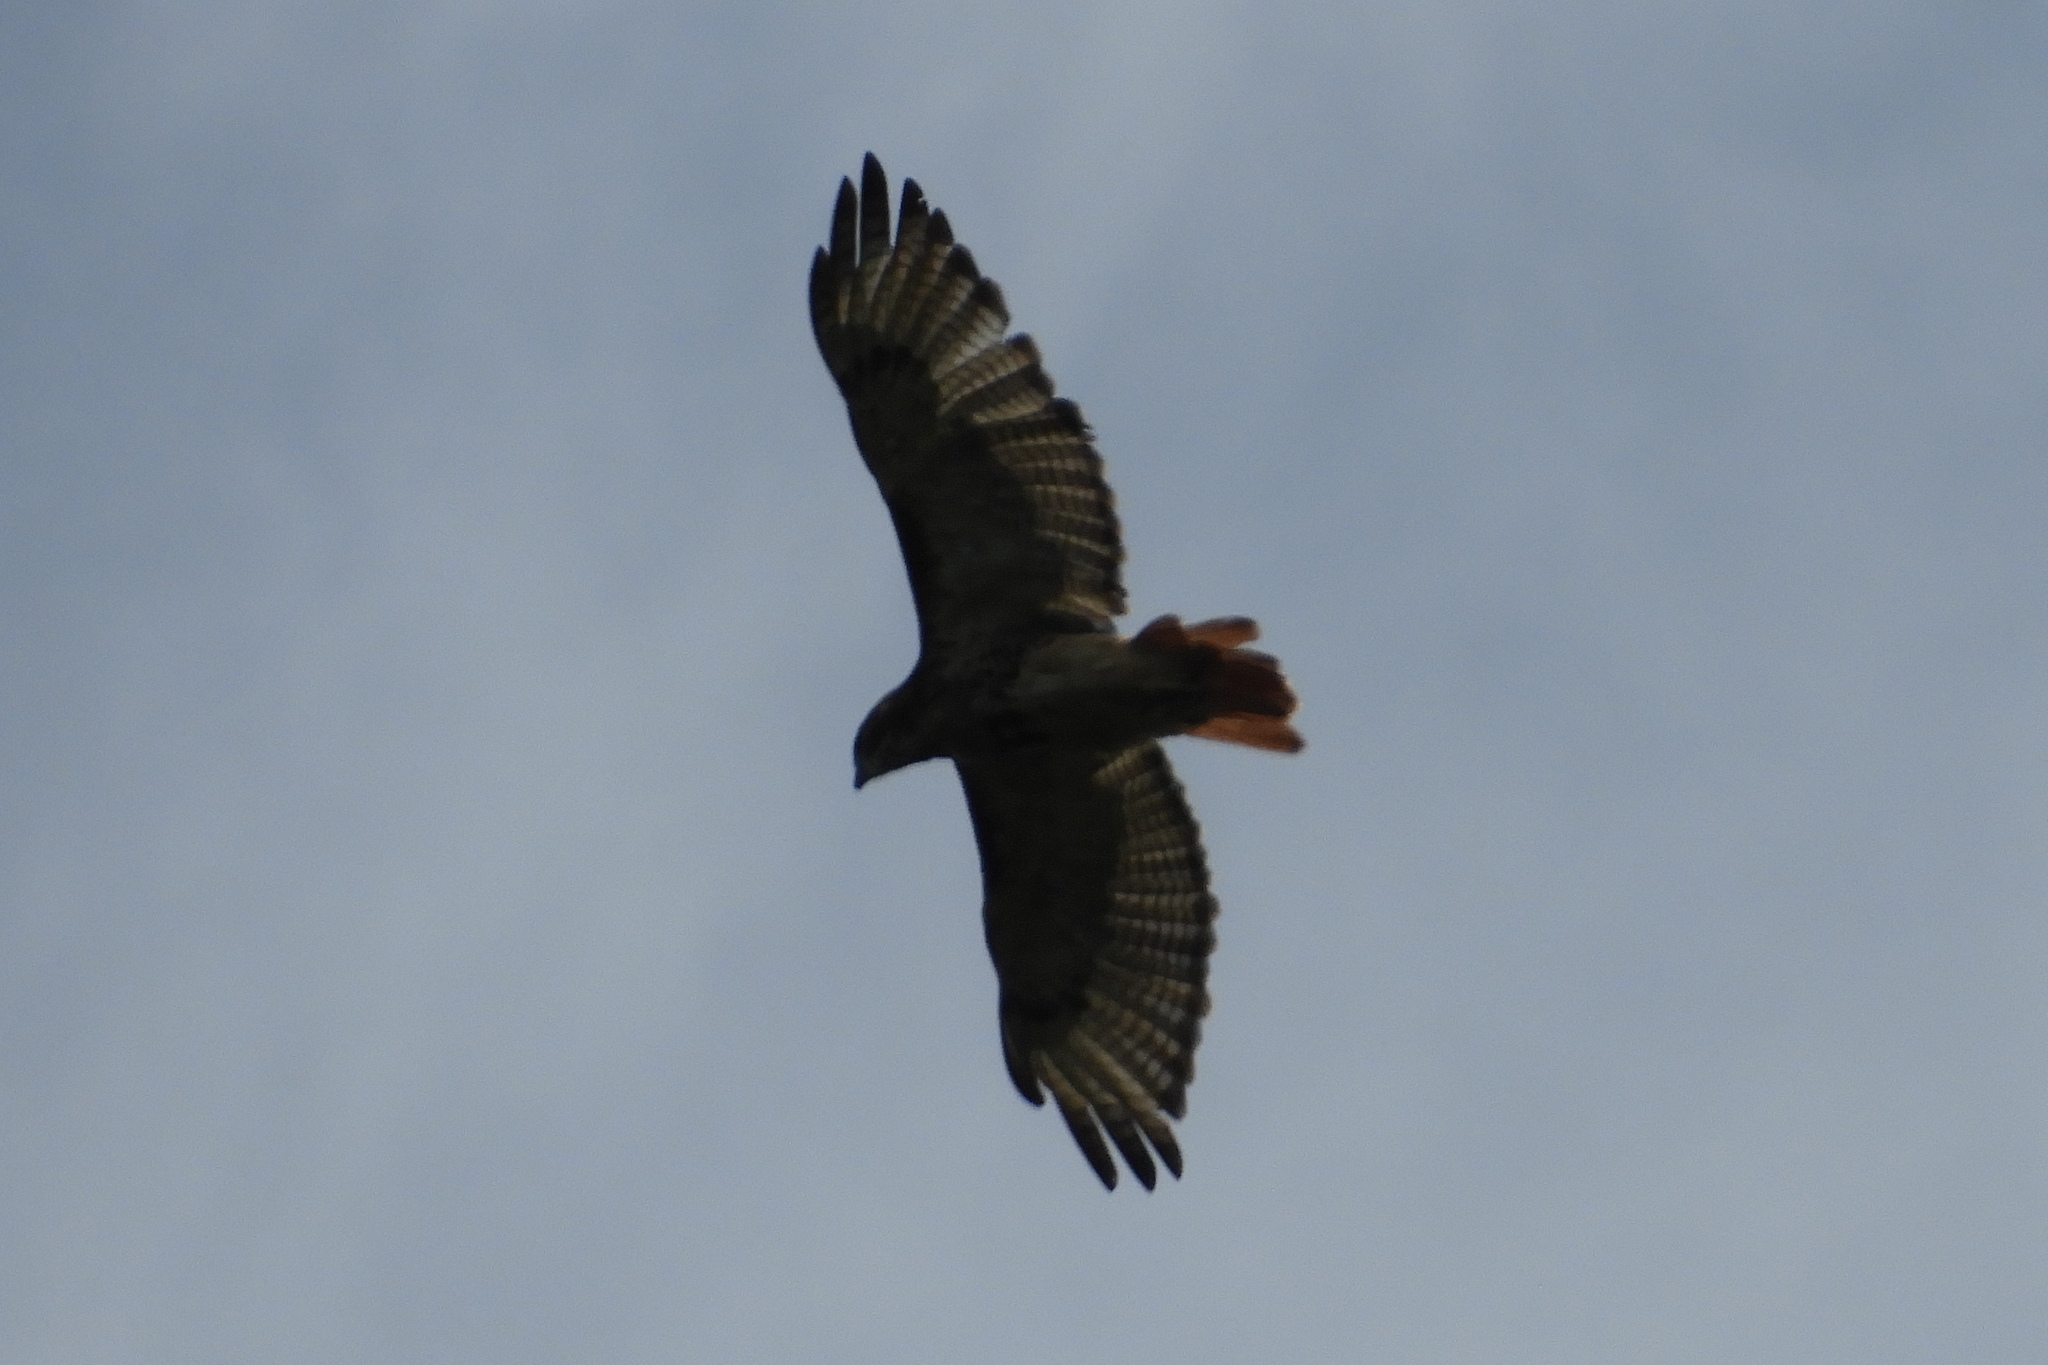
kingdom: Animalia
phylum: Chordata
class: Aves
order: Accipitriformes
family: Accipitridae
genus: Buteo
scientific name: Buteo jamaicensis
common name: Red-tailed hawk
